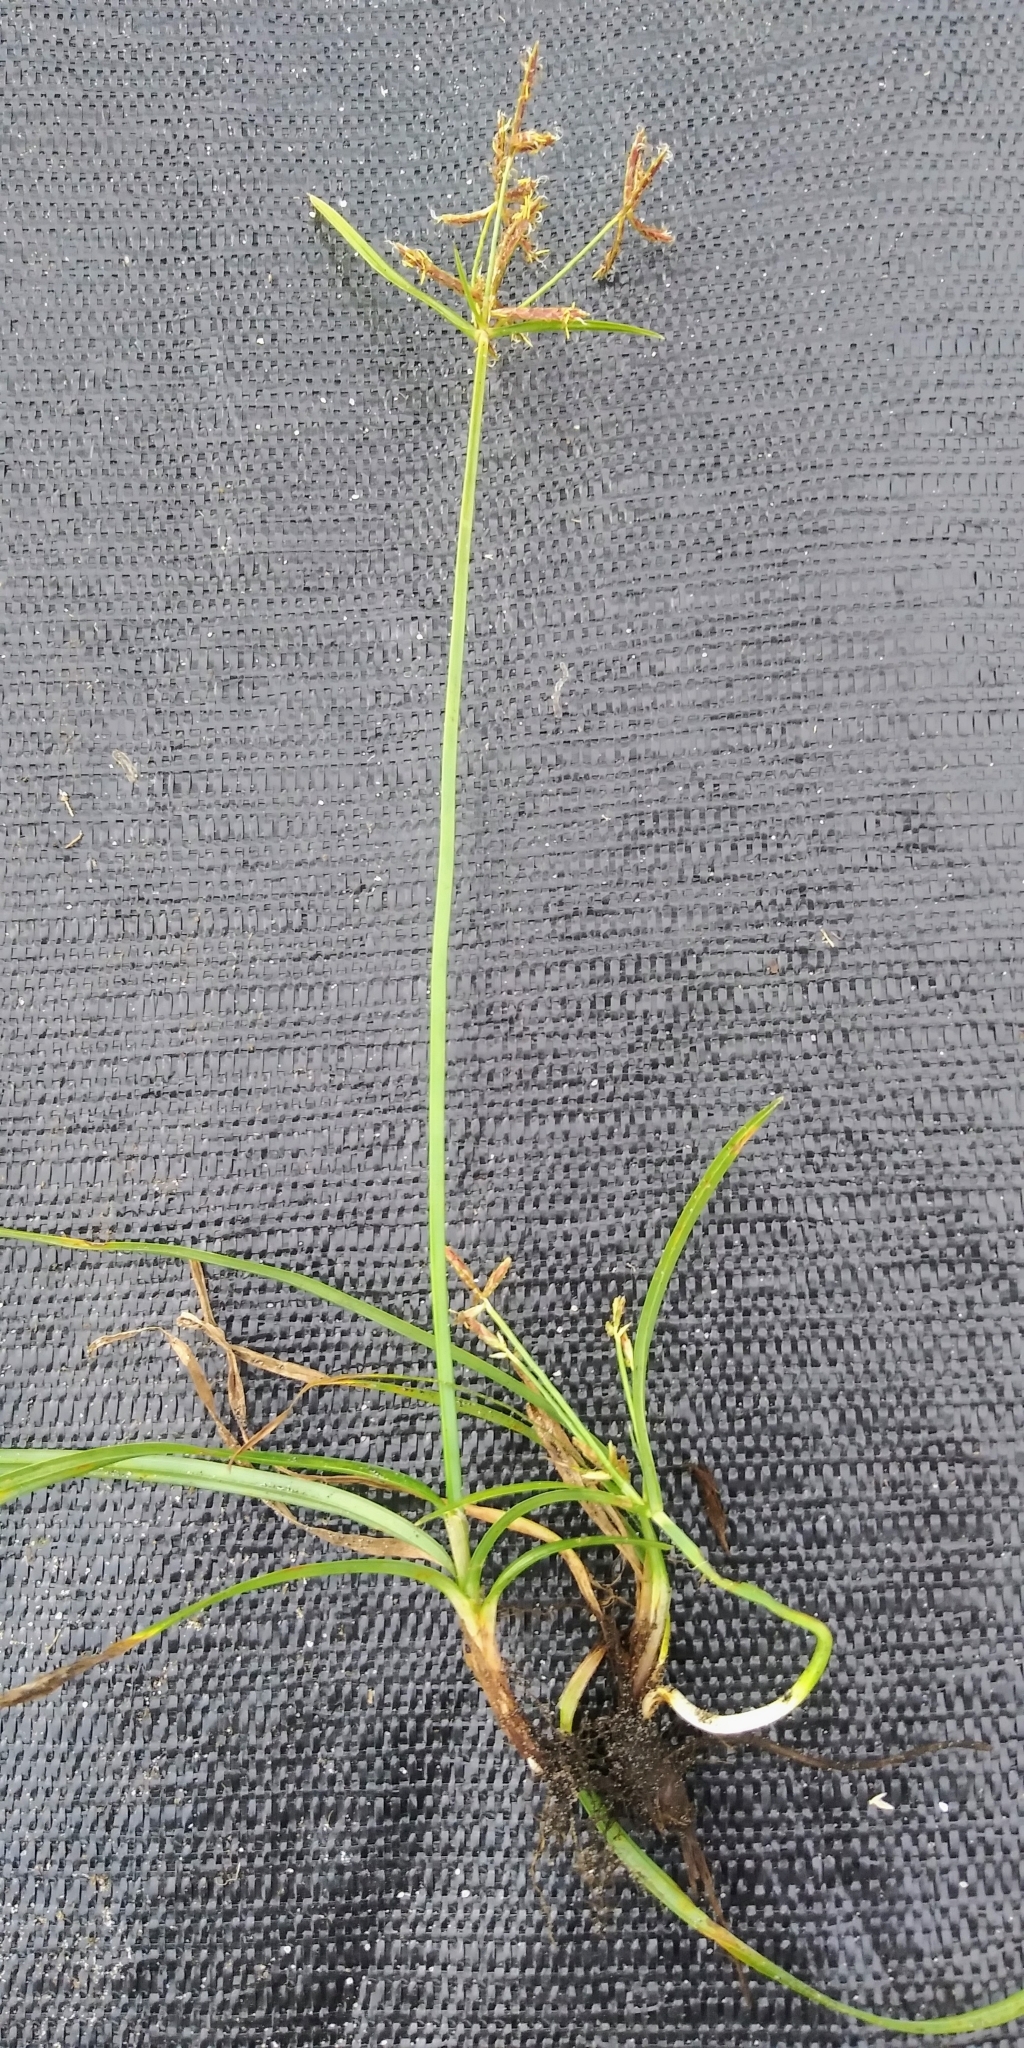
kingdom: Plantae
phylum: Tracheophyta
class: Liliopsida
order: Poales
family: Cyperaceae
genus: Cyperus
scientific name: Cyperus rotundus
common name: Nutgrass
